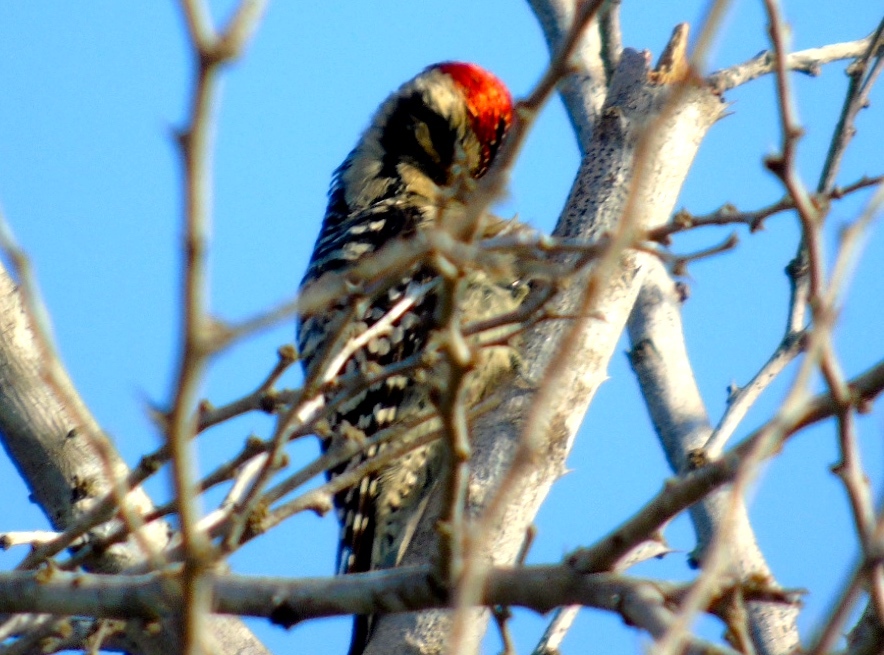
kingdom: Animalia
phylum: Chordata
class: Aves
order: Piciformes
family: Picidae
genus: Dryobates
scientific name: Dryobates scalaris
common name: Ladder-backed woodpecker
